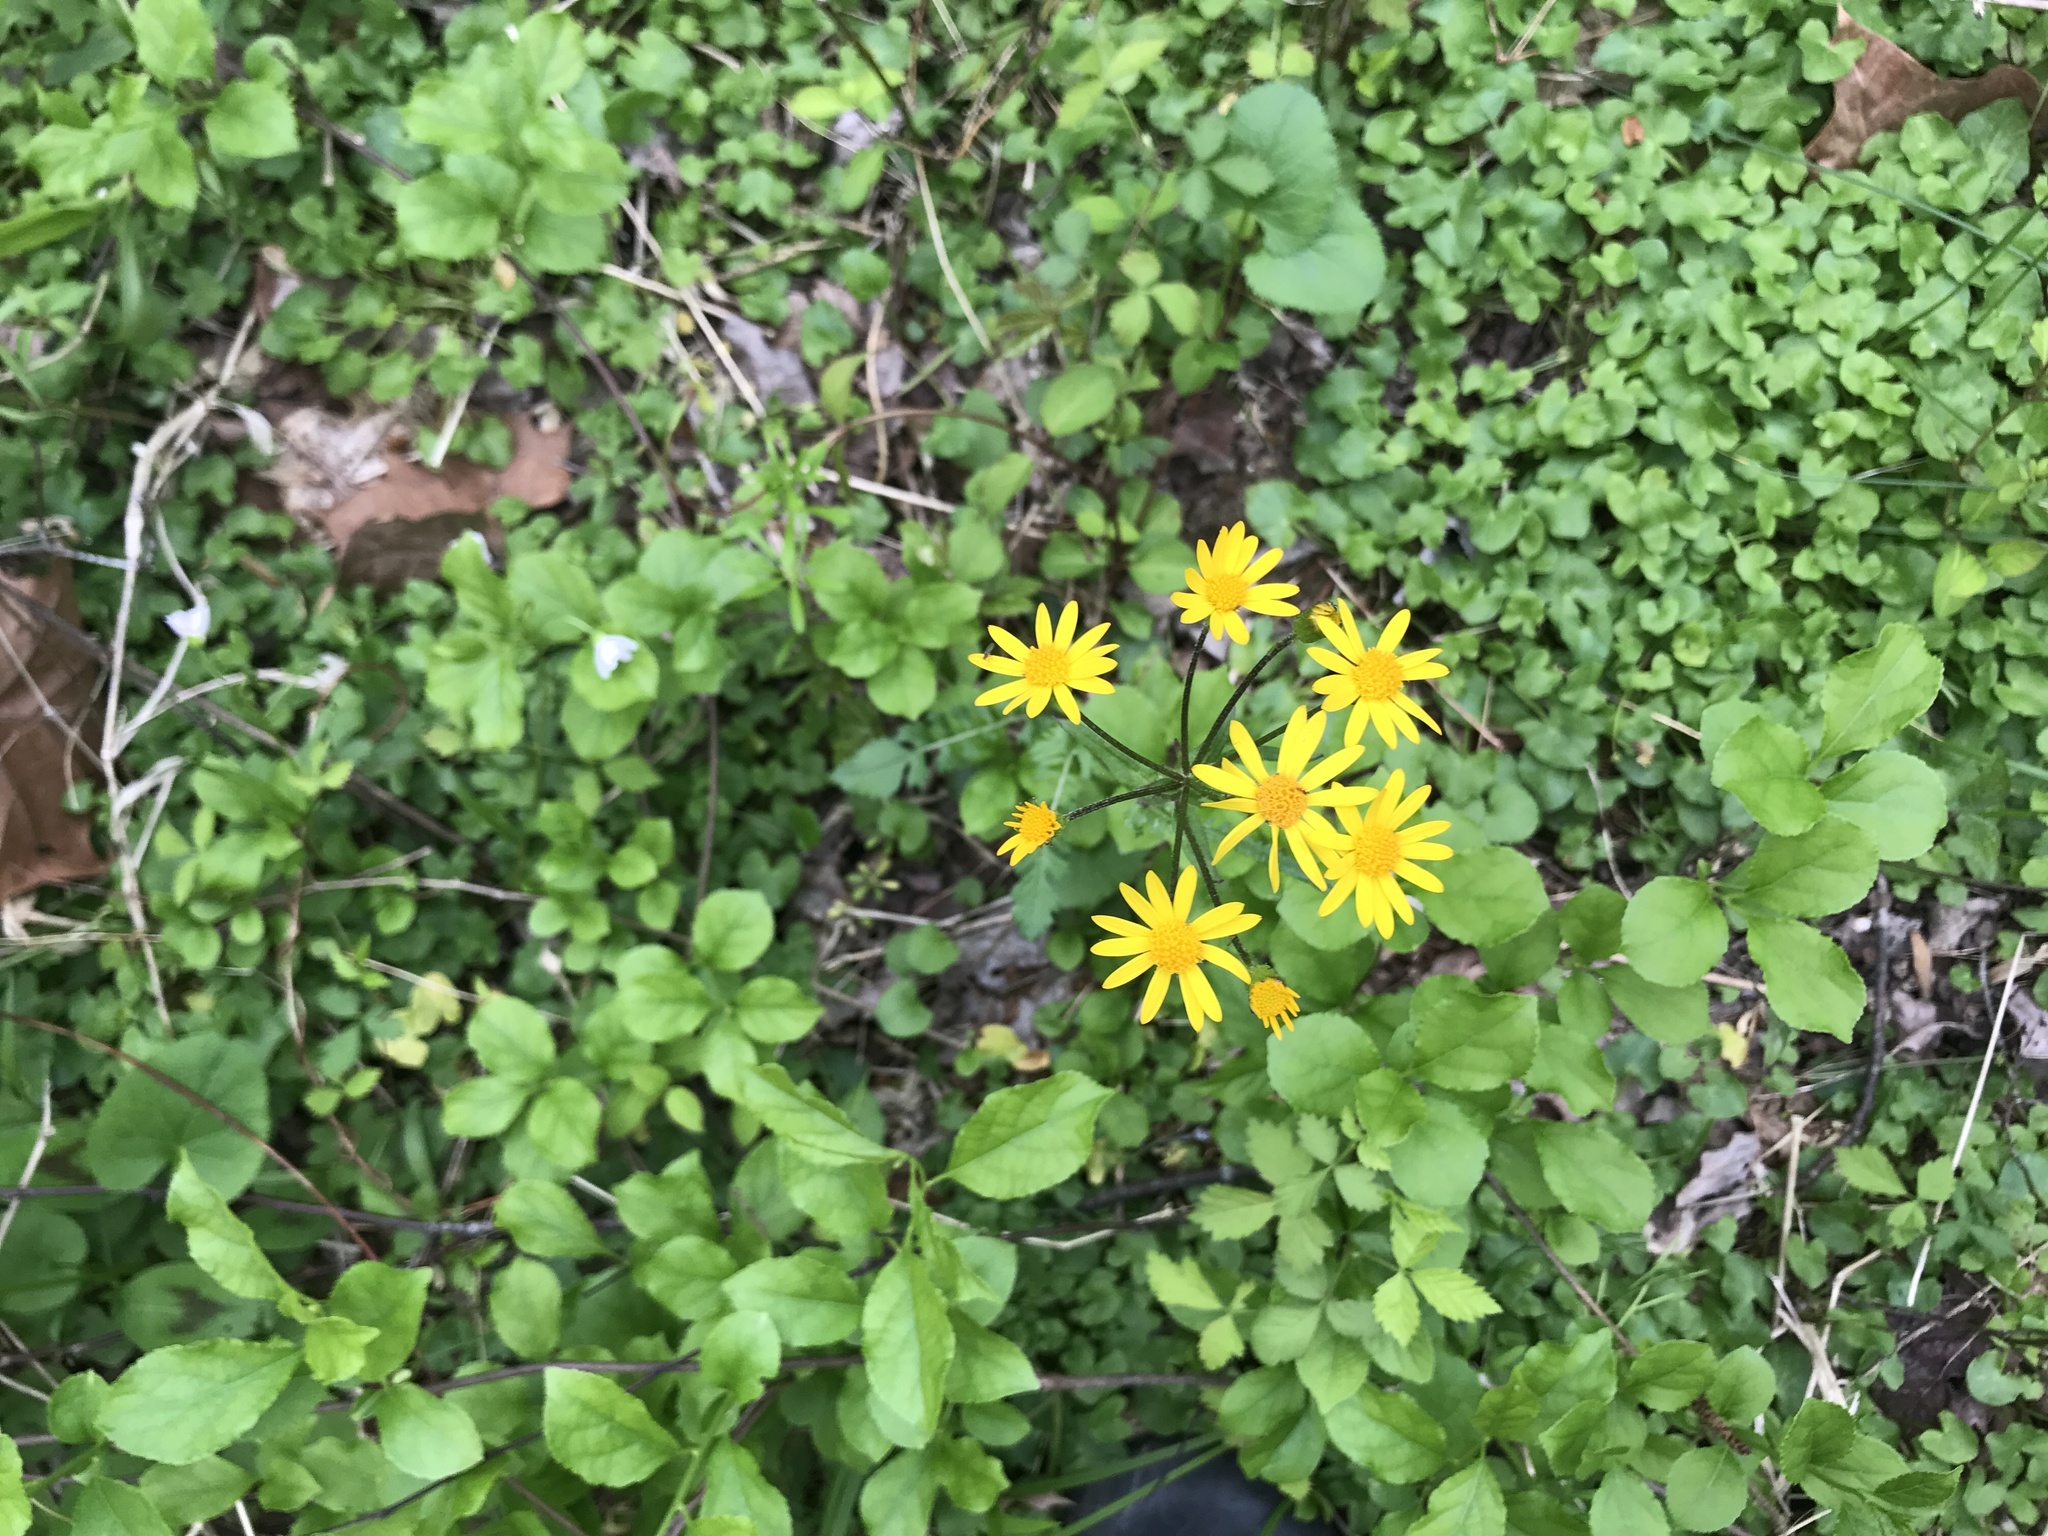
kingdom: Plantae
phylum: Tracheophyta
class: Magnoliopsida
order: Asterales
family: Asteraceae
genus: Packera
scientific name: Packera aurea
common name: Golden groundsel
